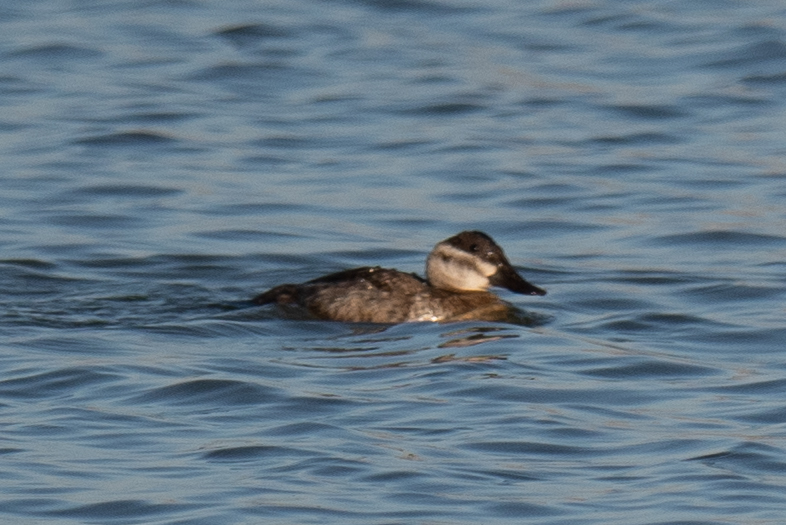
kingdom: Animalia
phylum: Chordata
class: Aves
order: Anseriformes
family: Anatidae
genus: Oxyura
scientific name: Oxyura jamaicensis
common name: Ruddy duck
